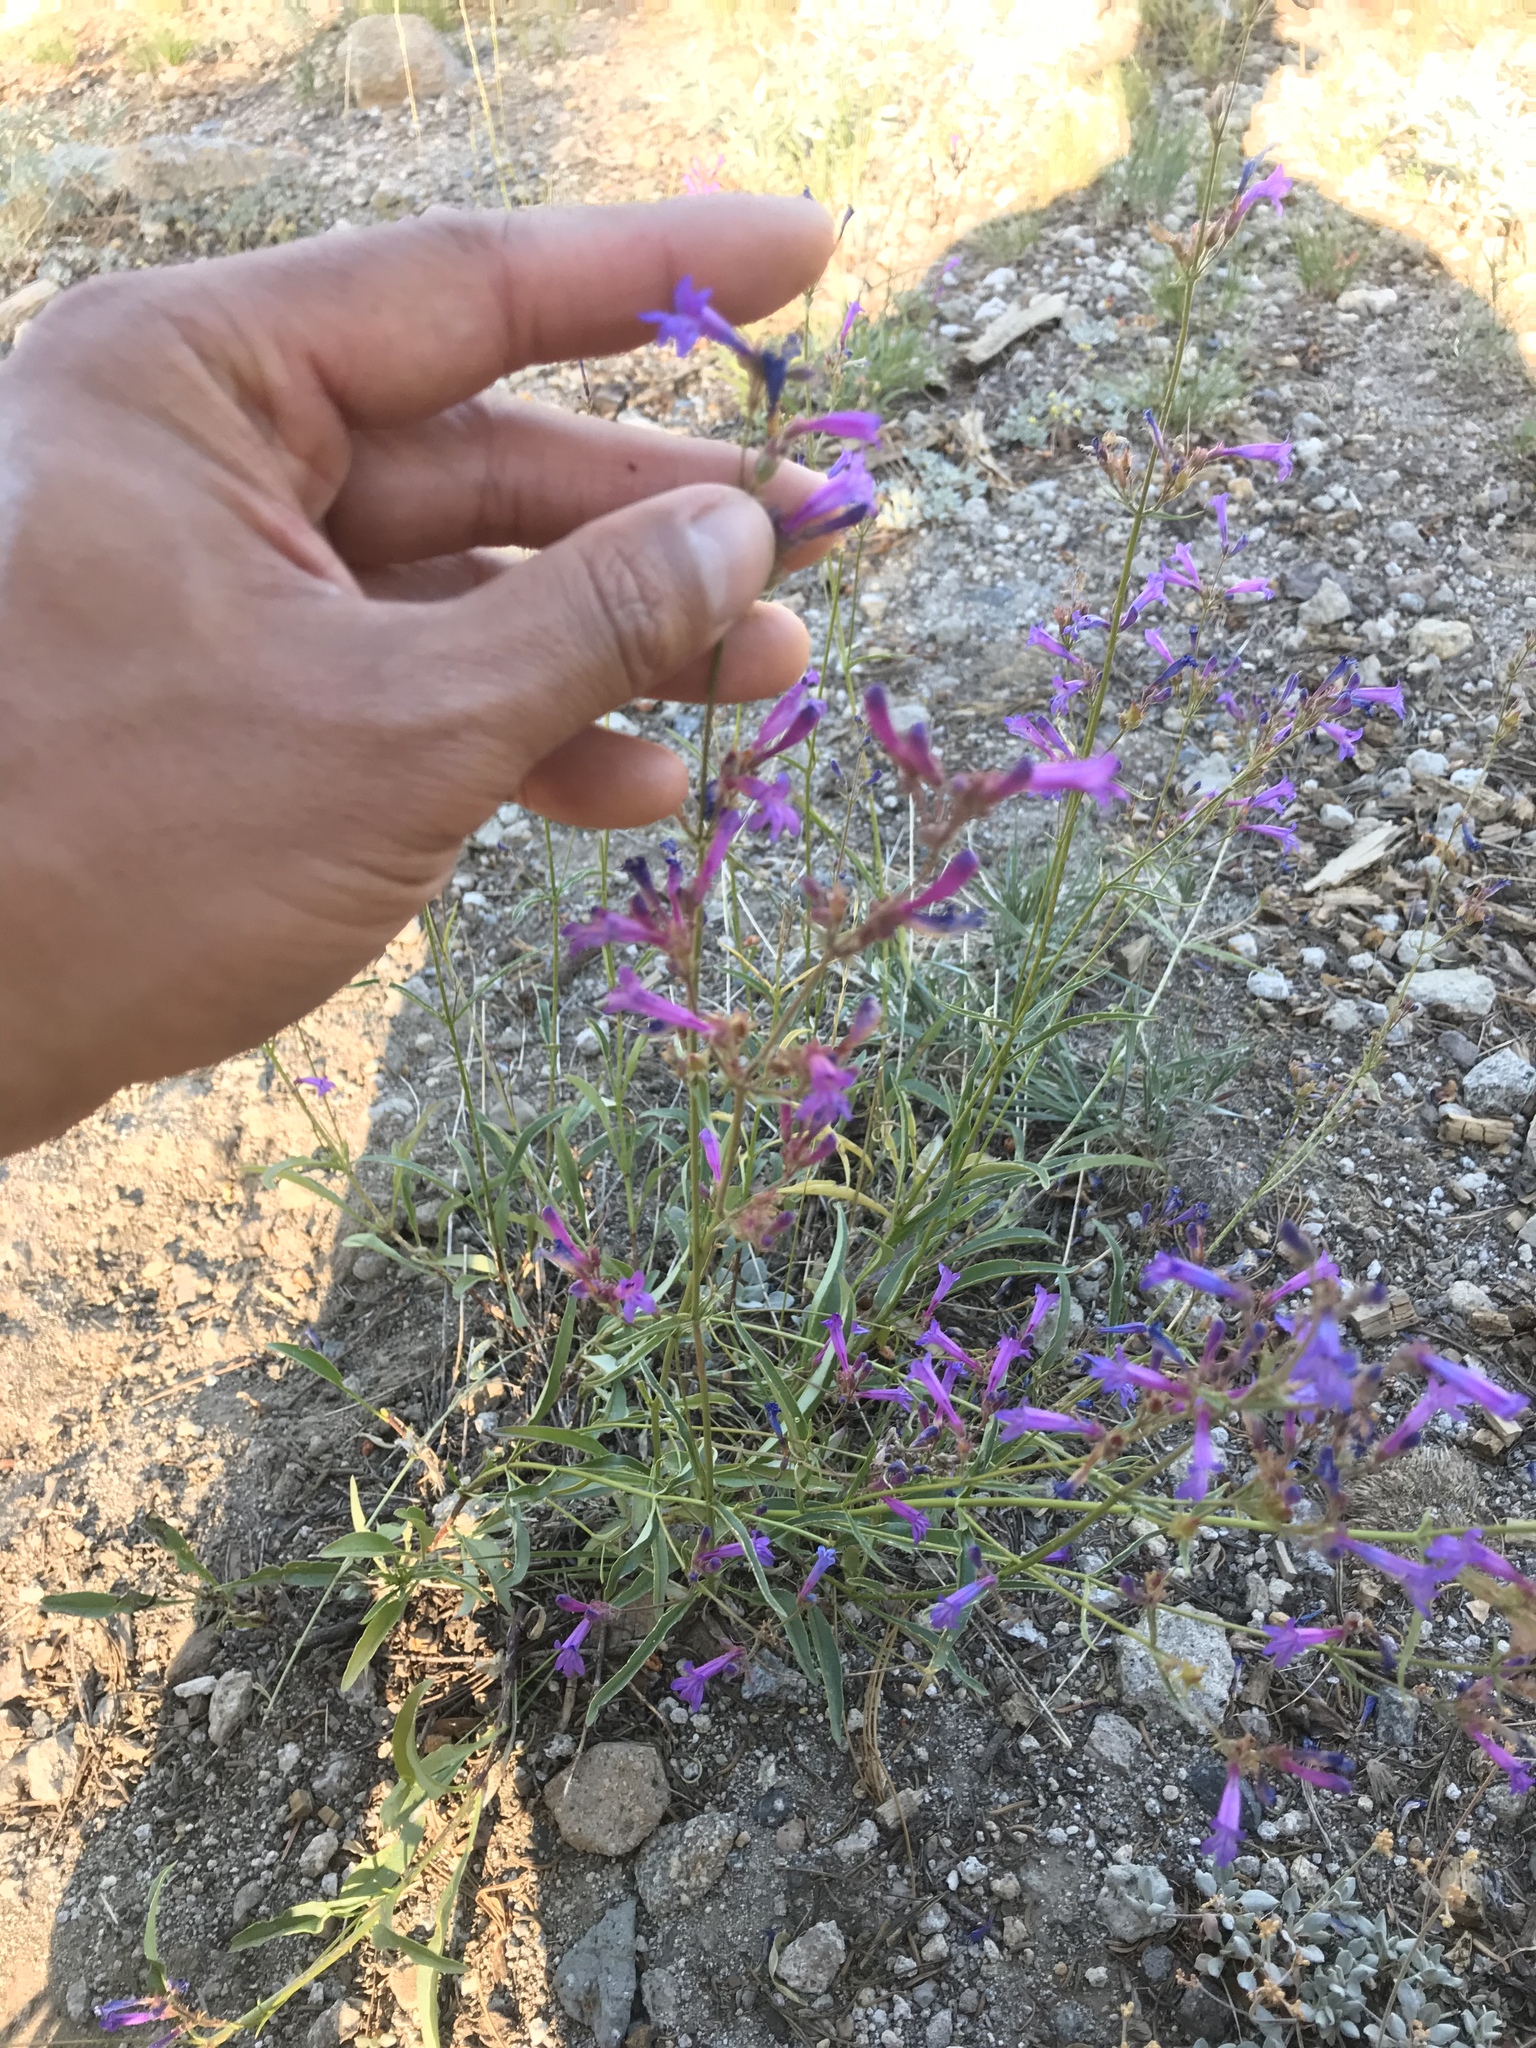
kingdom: Plantae
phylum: Tracheophyta
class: Magnoliopsida
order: Lamiales
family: Plantaginaceae
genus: Penstemon
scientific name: Penstemon gracilentus
